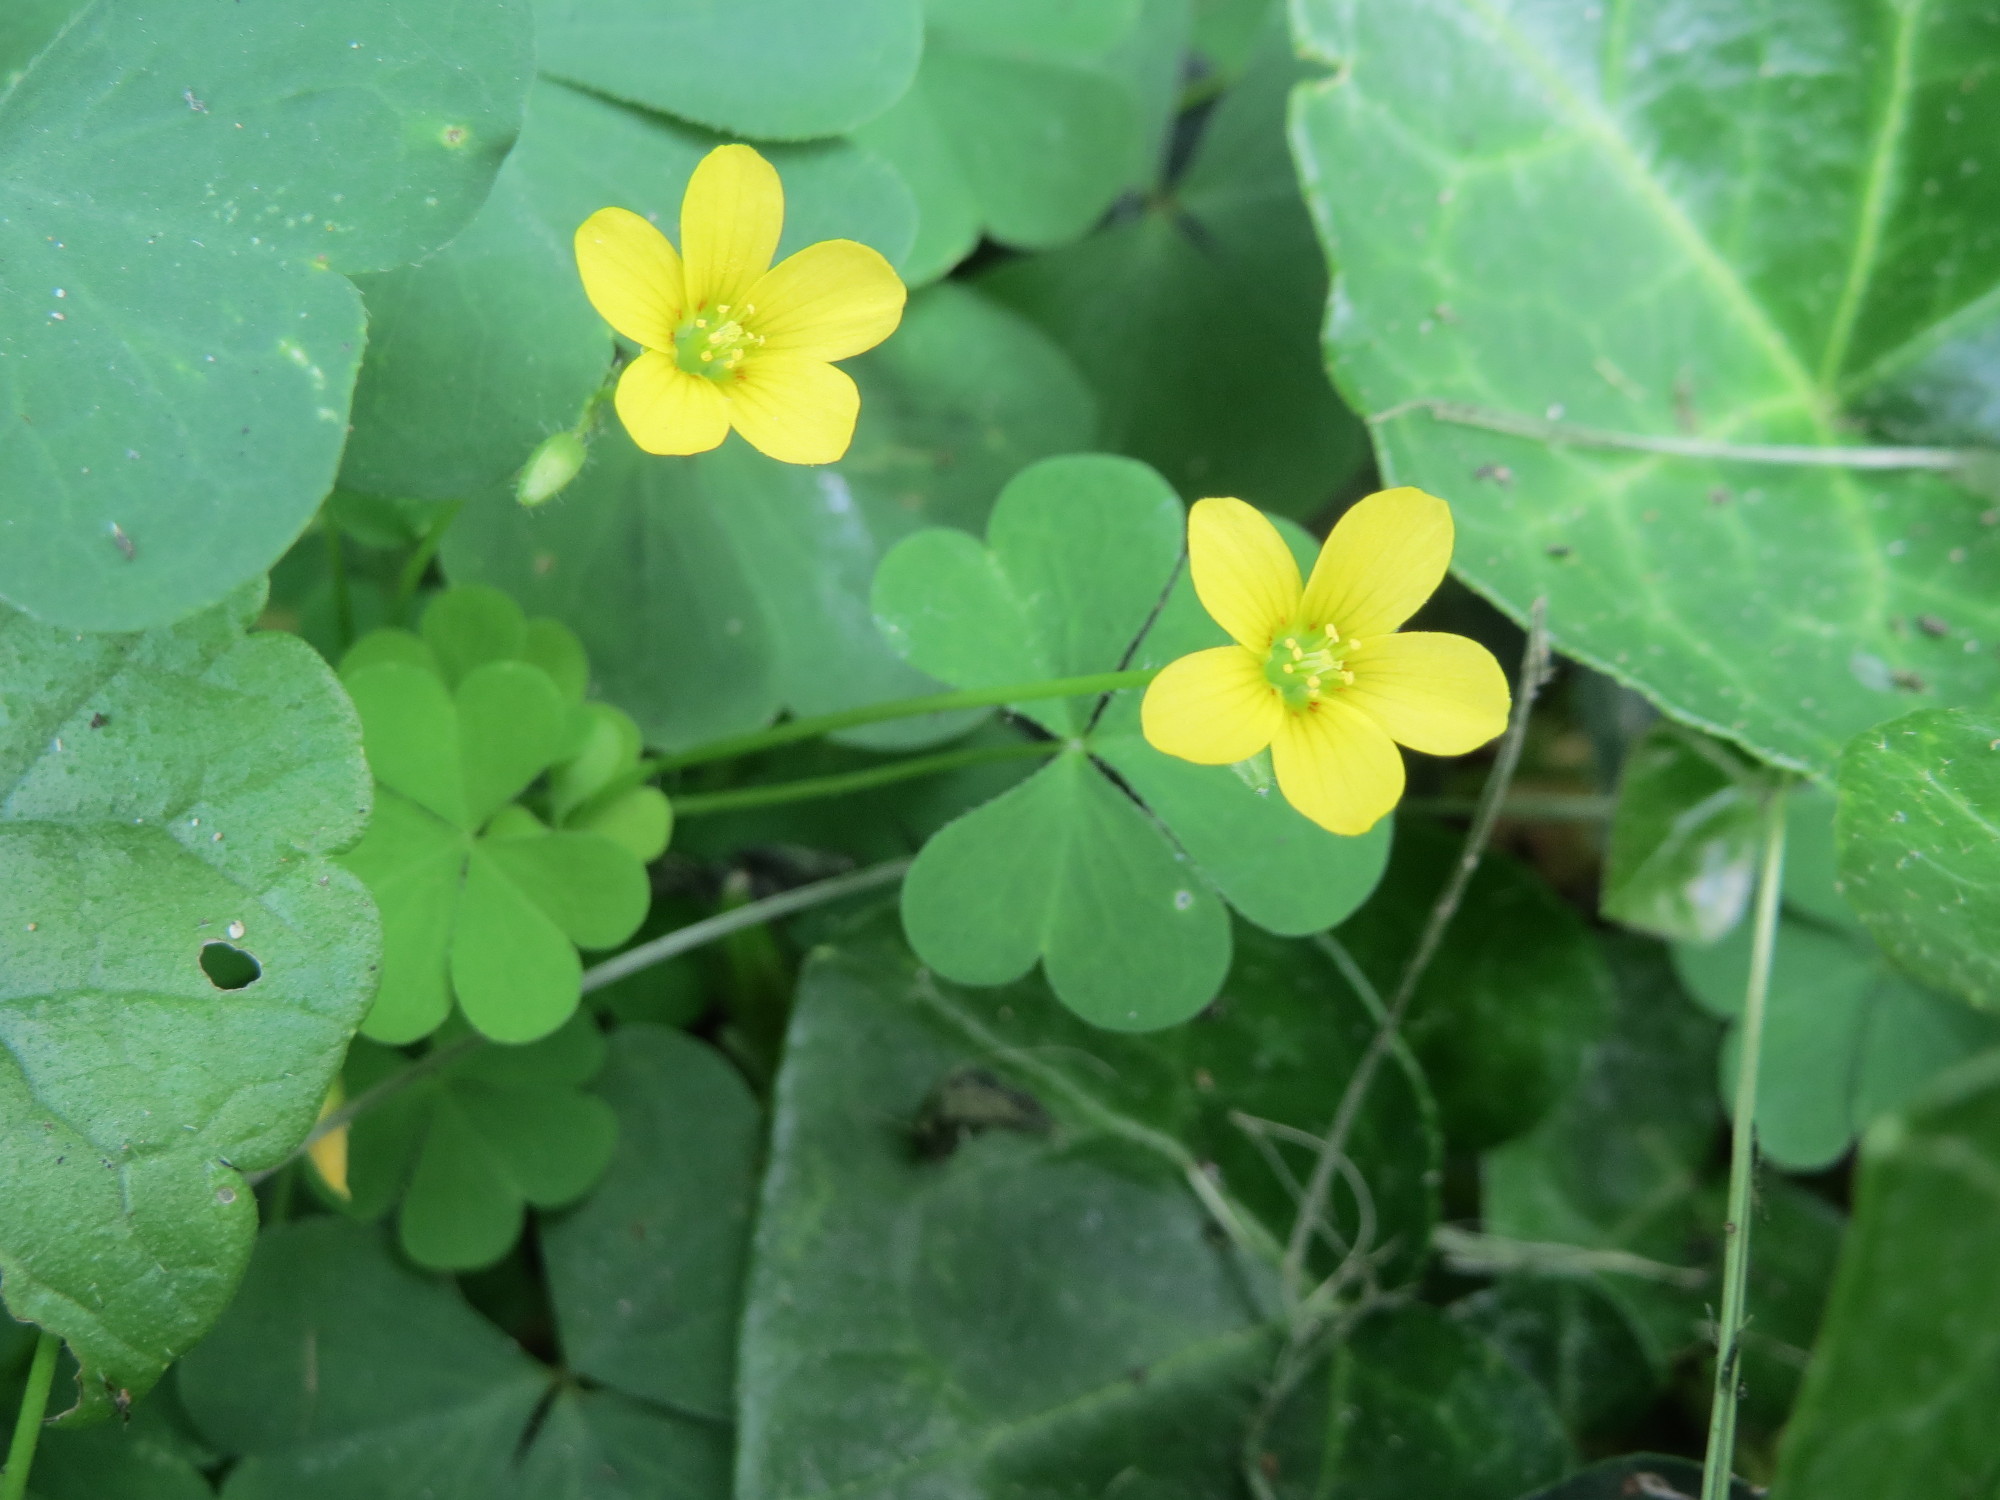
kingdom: Plantae
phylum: Tracheophyta
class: Magnoliopsida
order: Oxalidales
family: Oxalidaceae
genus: Oxalis
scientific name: Oxalis stricta
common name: Upright yellow-sorrel
